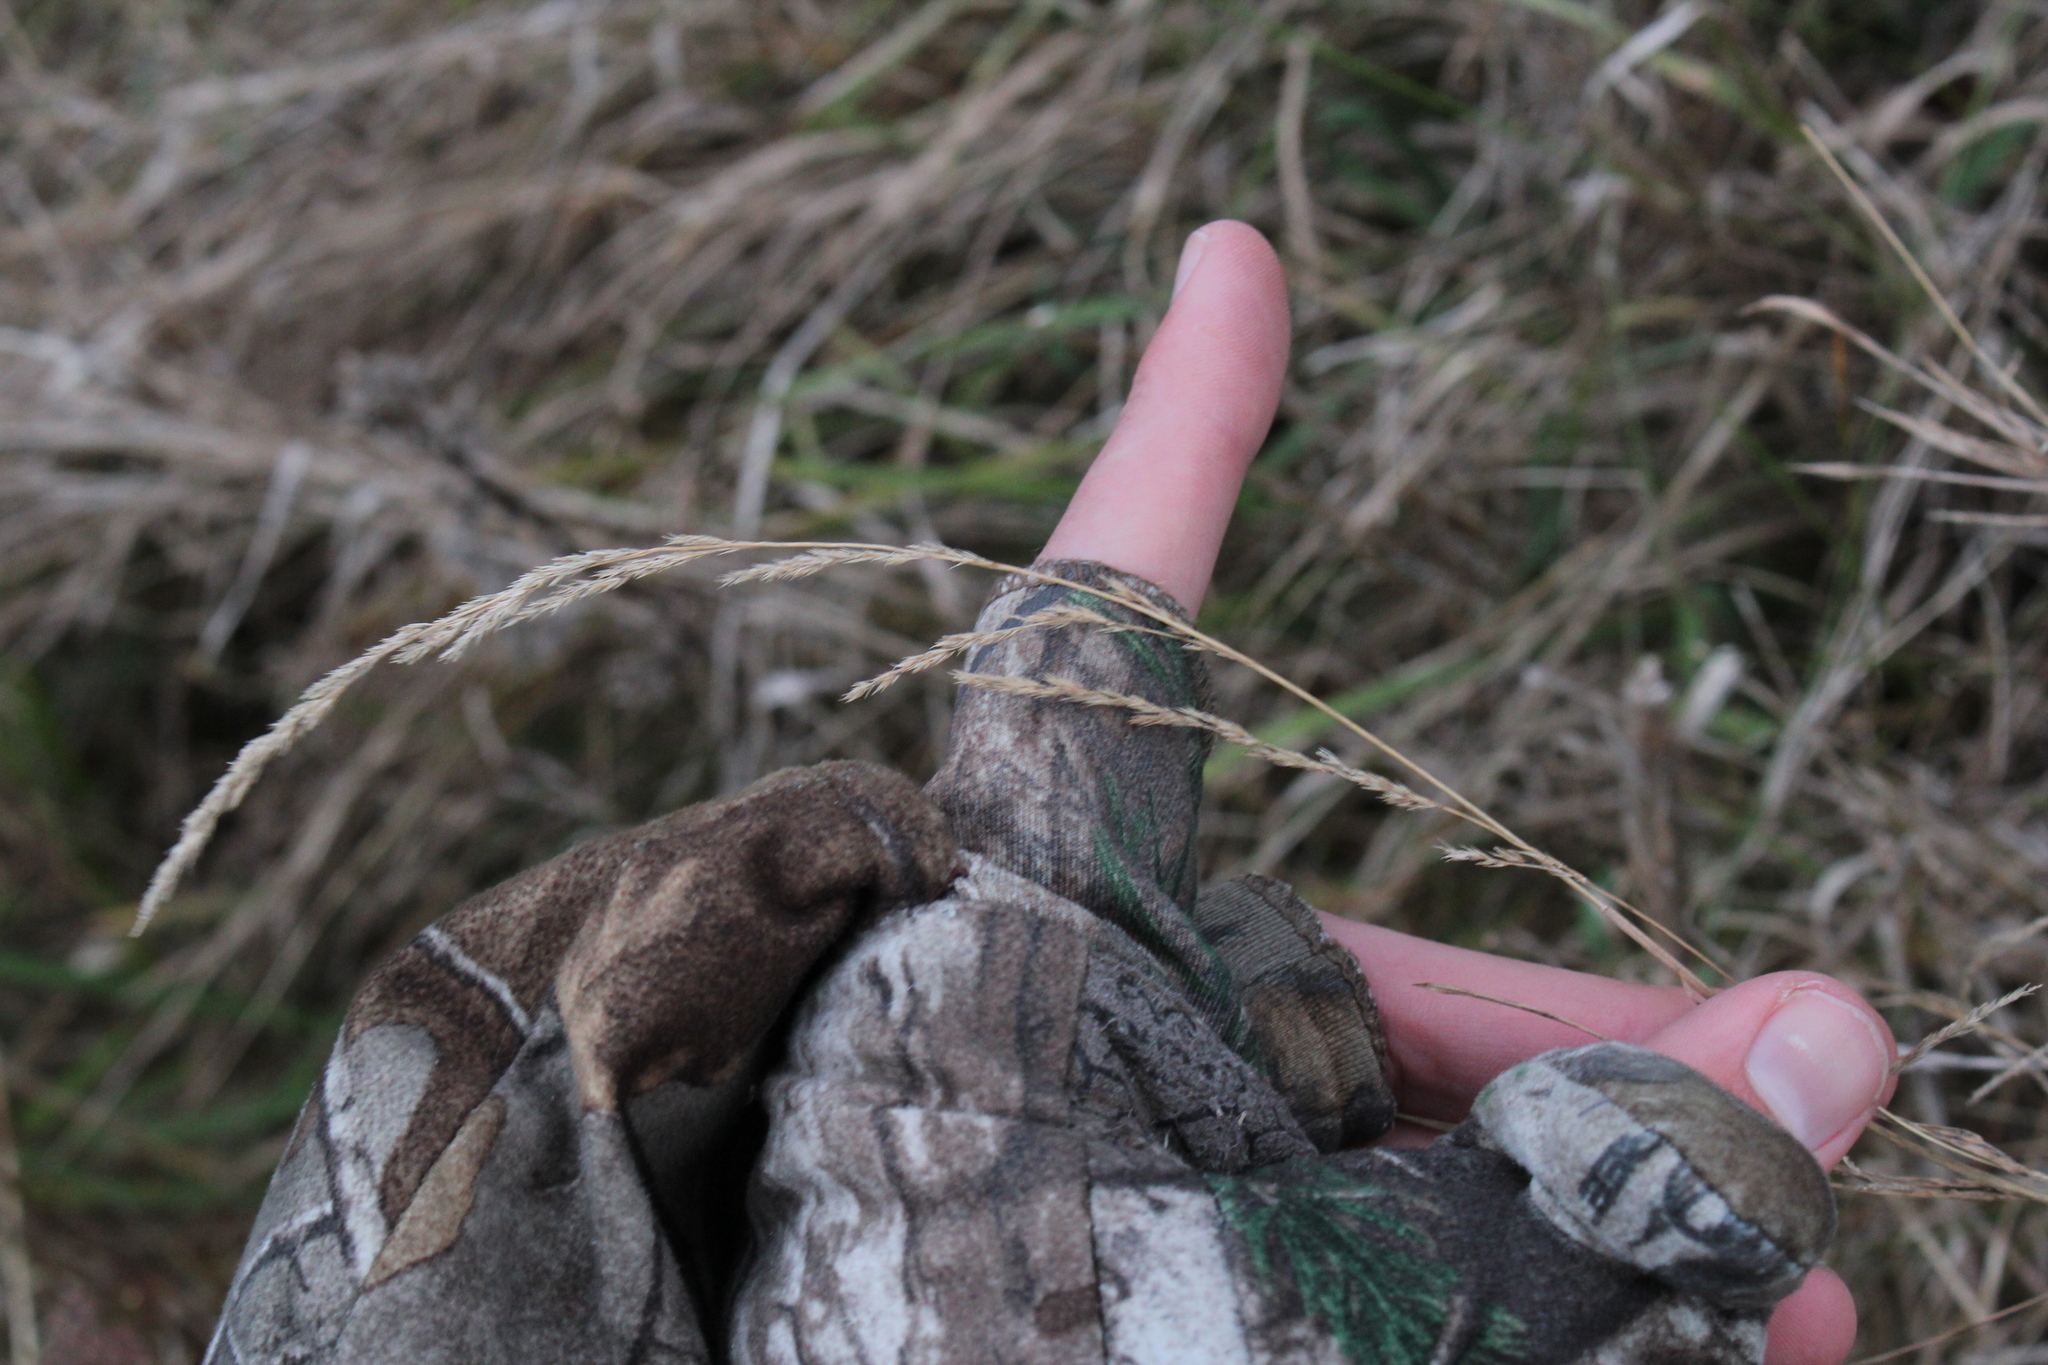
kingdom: Plantae
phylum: Tracheophyta
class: Liliopsida
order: Poales
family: Poaceae
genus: Muhlenbergia
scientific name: Muhlenbergia mexicana
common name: Mexican muhly
